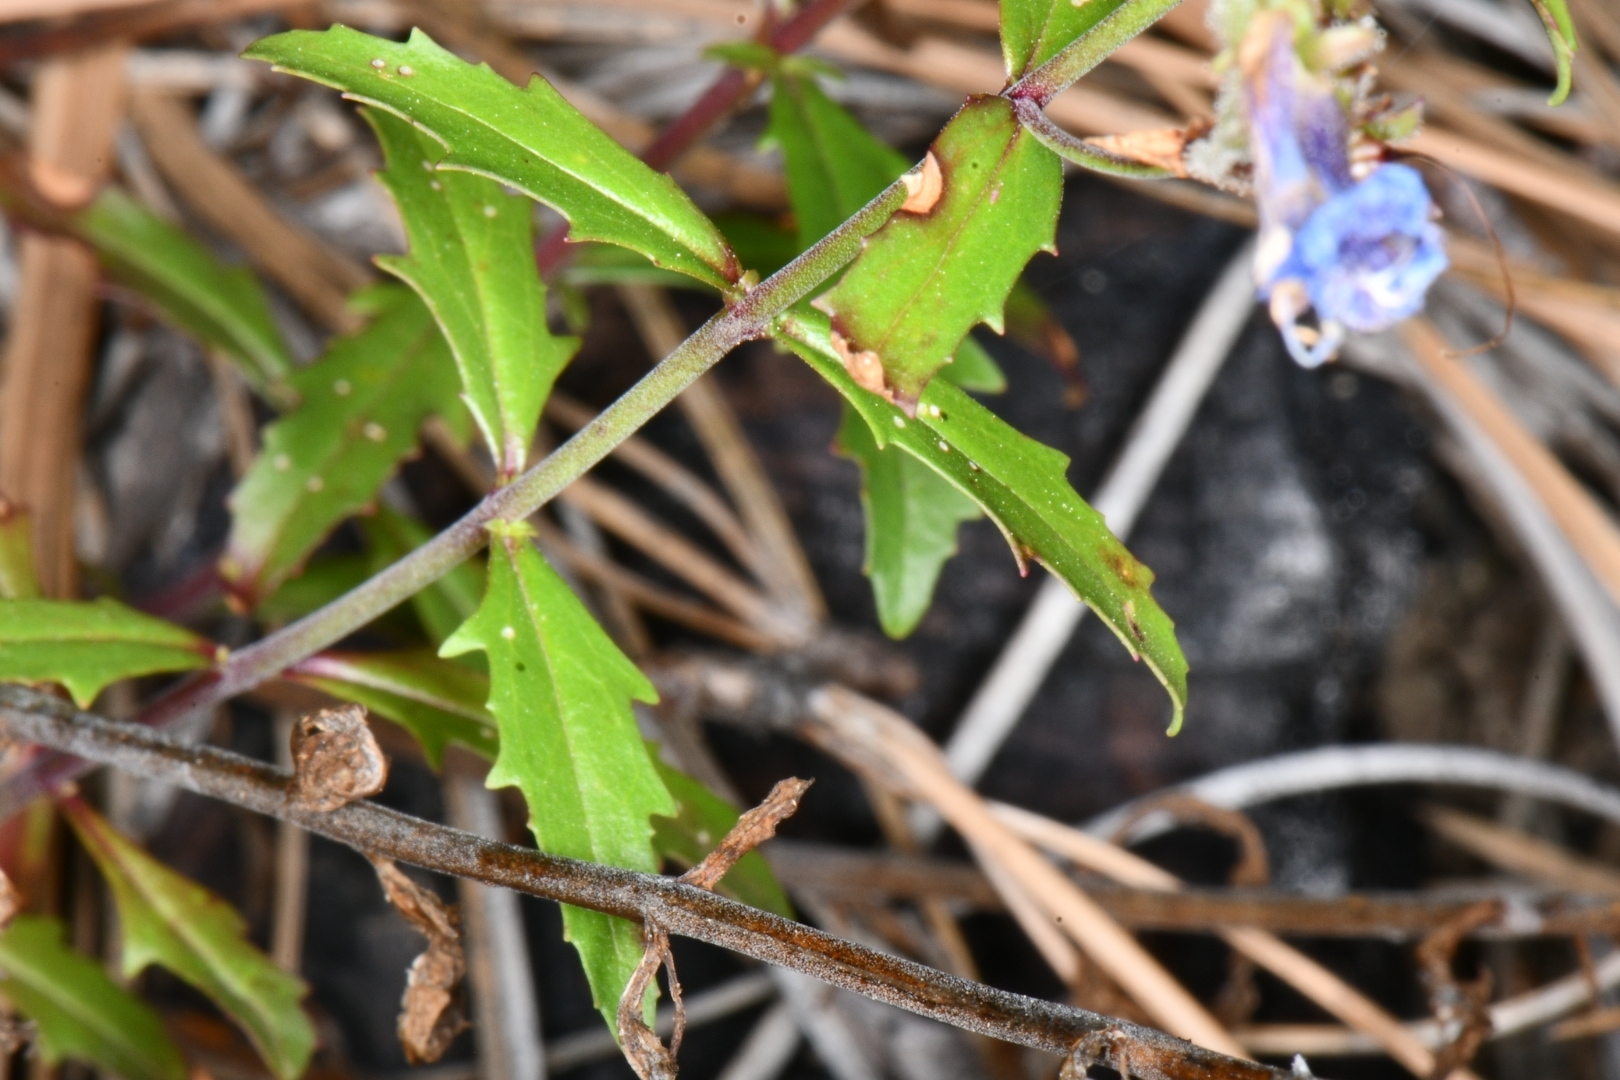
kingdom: Plantae
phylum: Tracheophyta
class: Magnoliopsida
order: Lamiales
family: Plantaginaceae
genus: Penstemon
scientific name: Penstemon diphyllus
